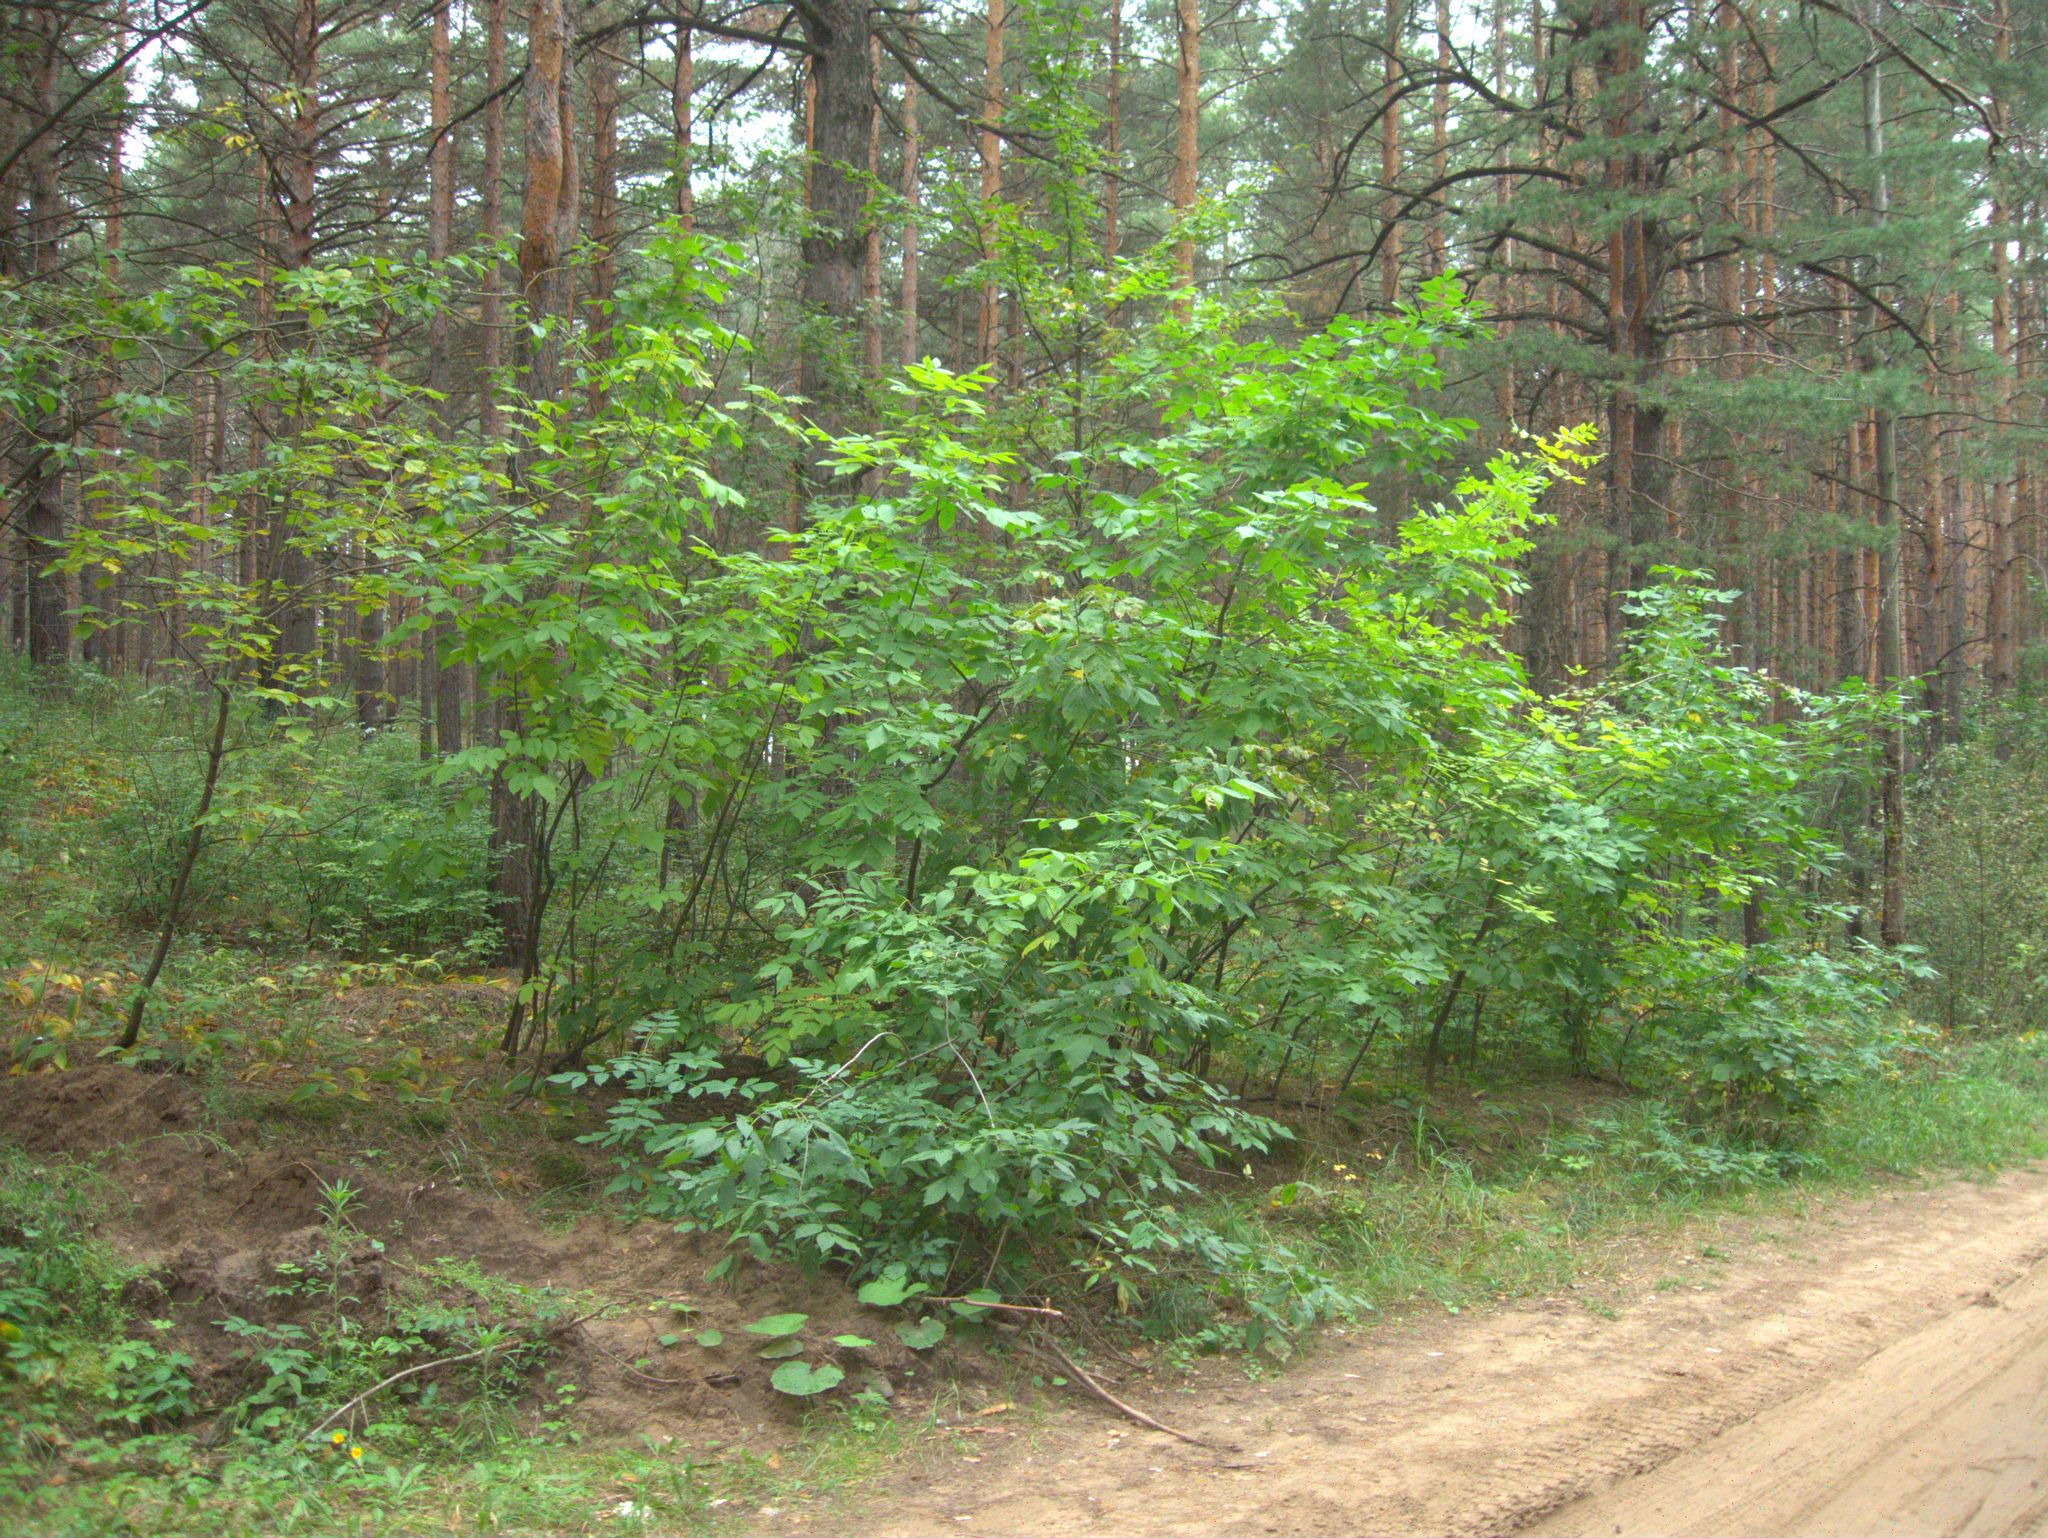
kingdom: Plantae
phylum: Tracheophyta
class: Magnoliopsida
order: Sapindales
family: Sapindaceae
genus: Acer
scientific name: Acer negundo
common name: Ashleaf maple
